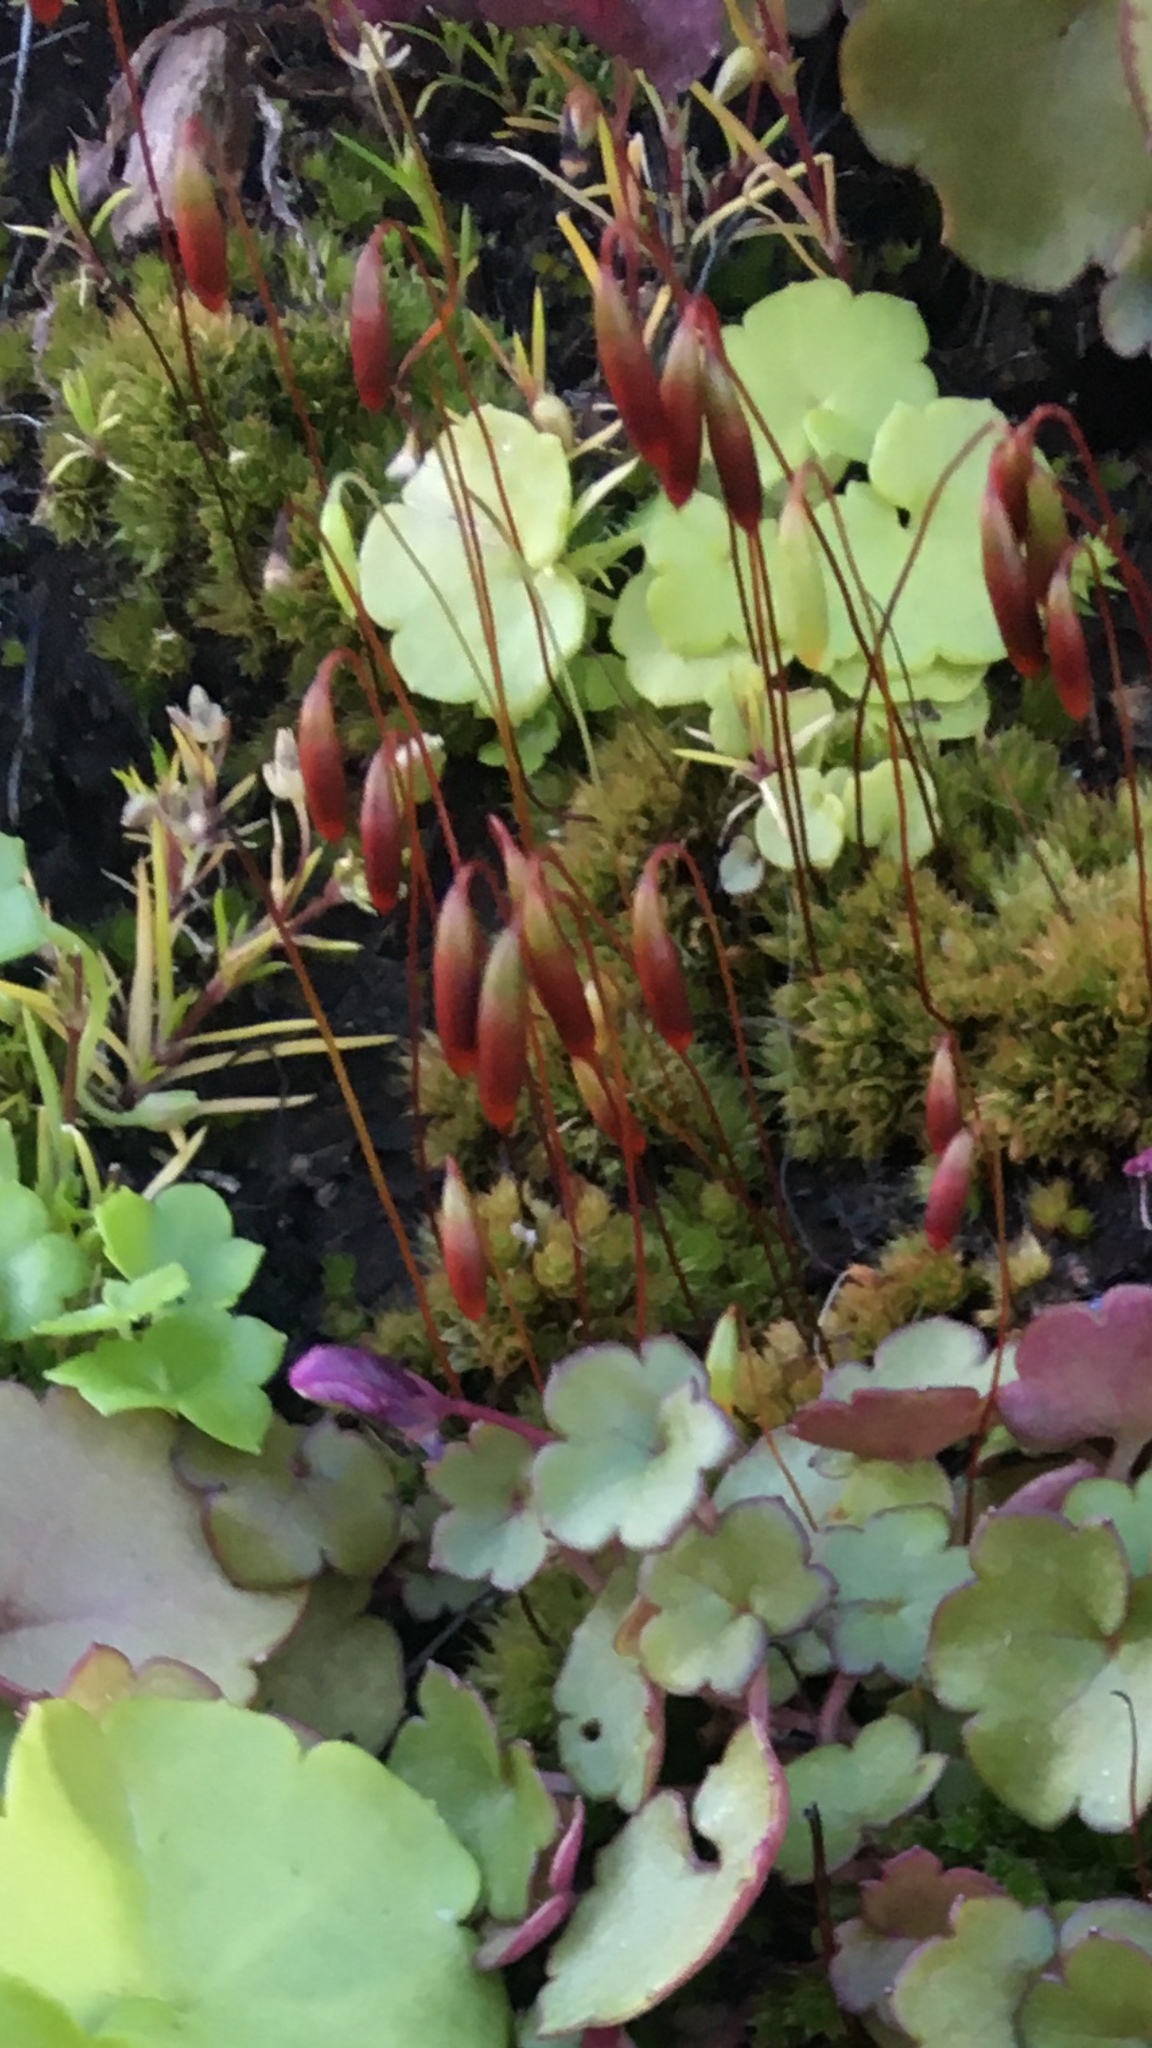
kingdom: Plantae
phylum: Bryophyta
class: Bryopsida
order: Bryales
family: Bryaceae
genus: Rosulabryum
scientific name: Rosulabryum canariense
